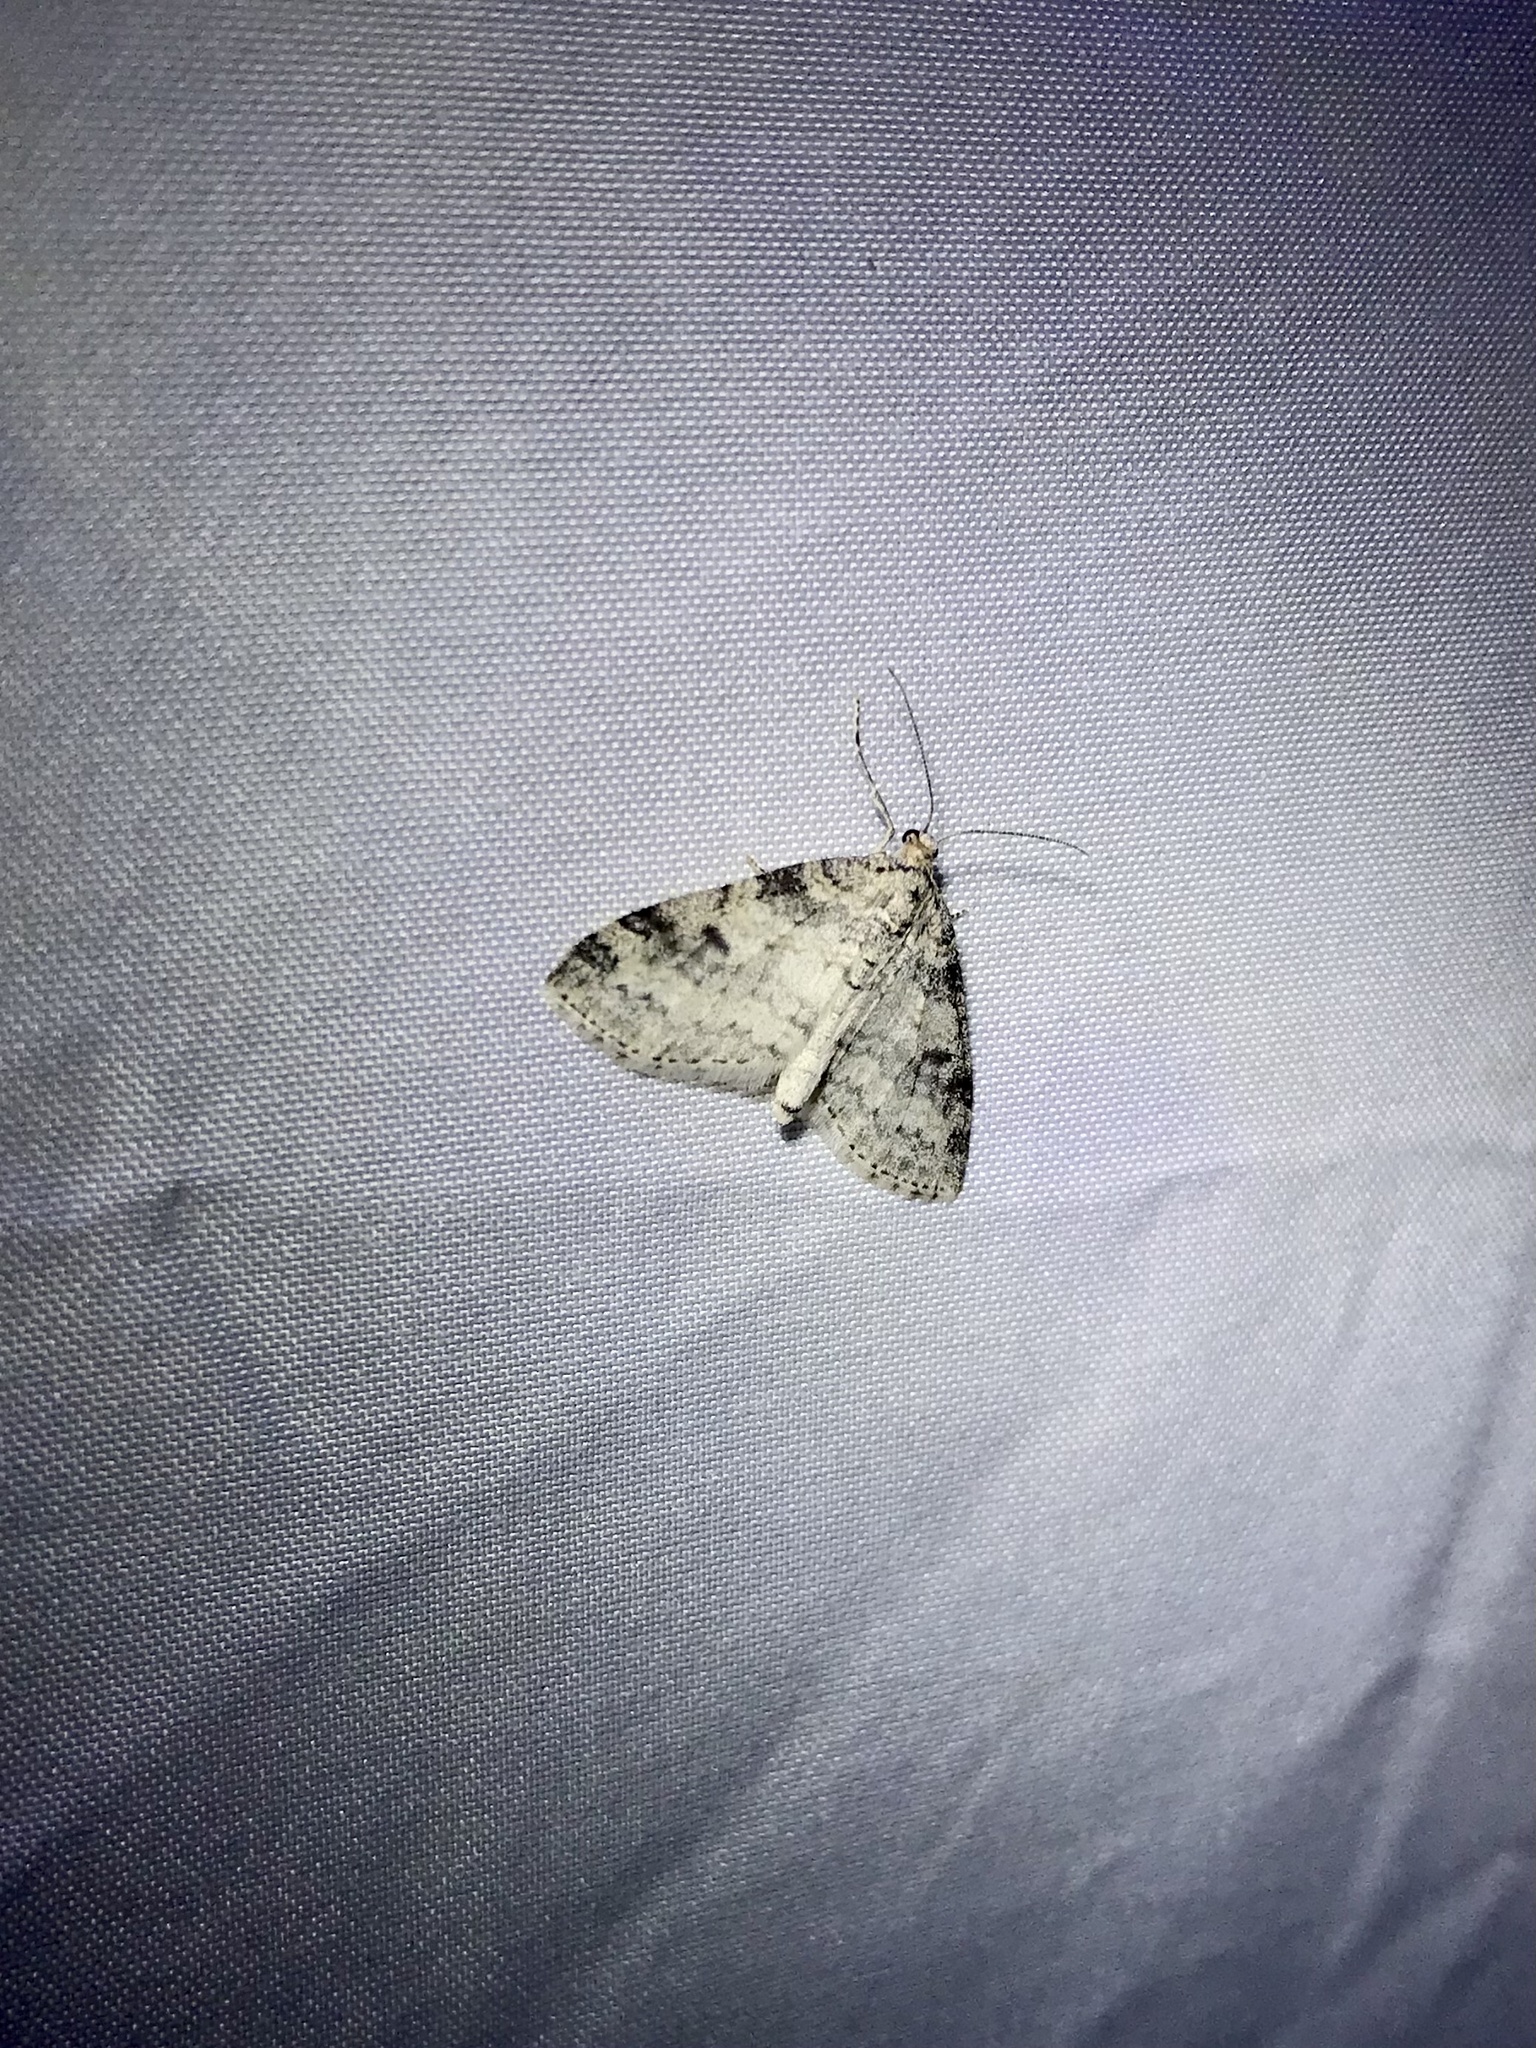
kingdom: Animalia
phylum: Arthropoda
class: Insecta
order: Lepidoptera
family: Geometridae
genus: Lobophora
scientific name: Lobophora nivigerata
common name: Powdered bigwing
